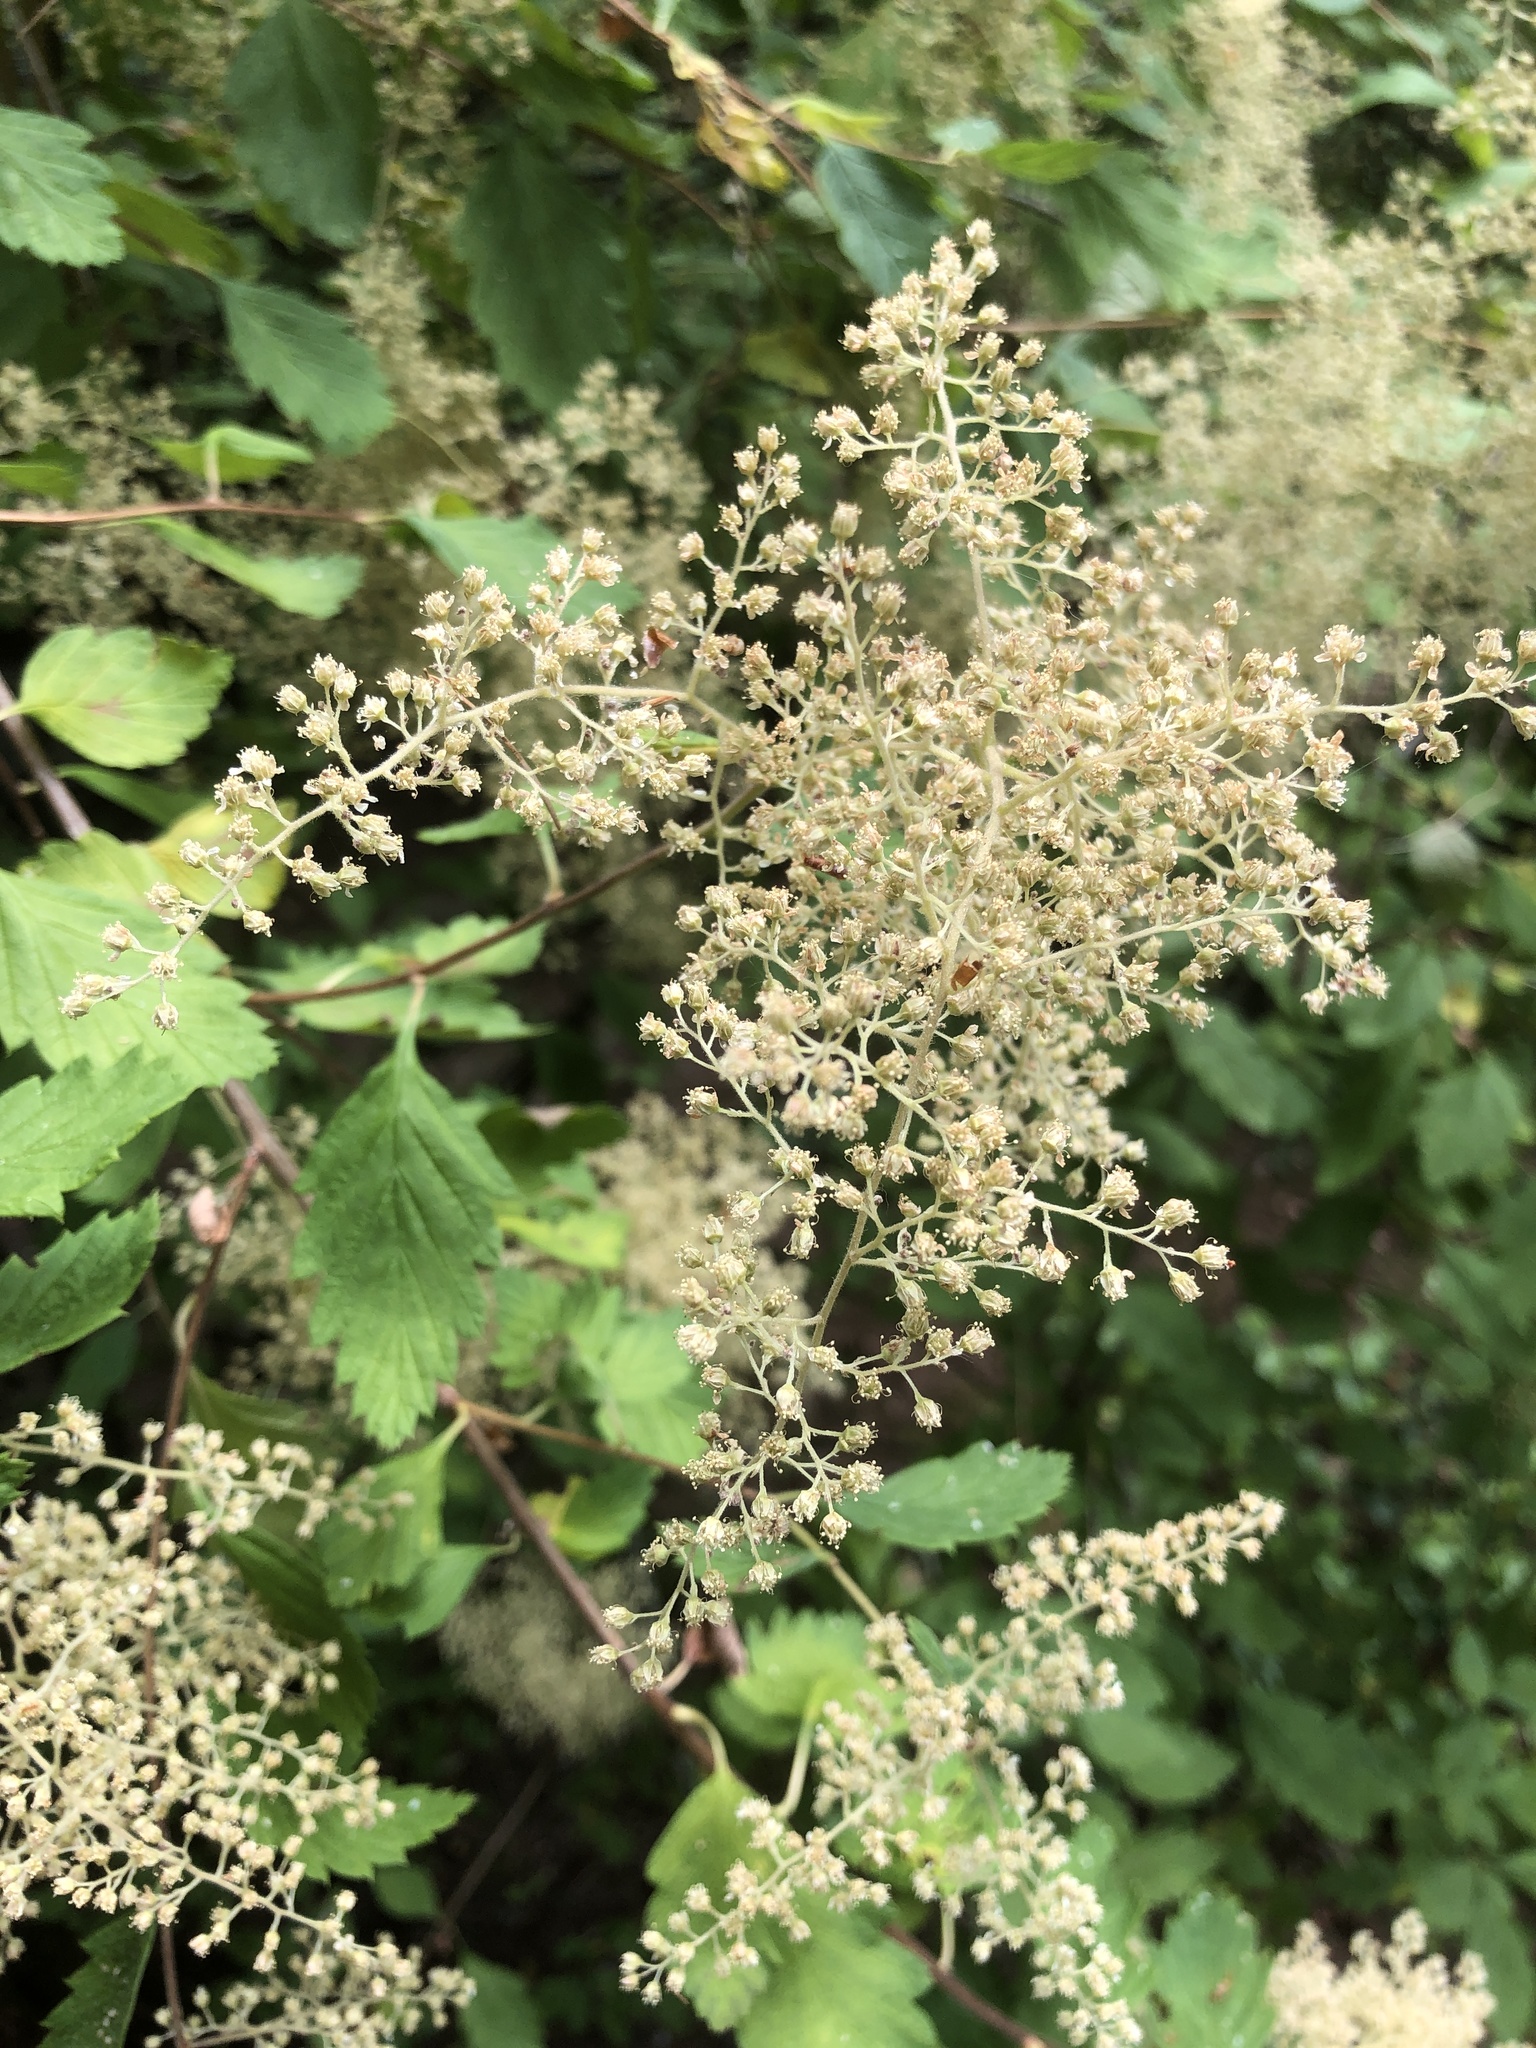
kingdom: Plantae
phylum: Tracheophyta
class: Magnoliopsida
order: Rosales
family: Rosaceae
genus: Holodiscus
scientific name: Holodiscus discolor
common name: Oceanspray
